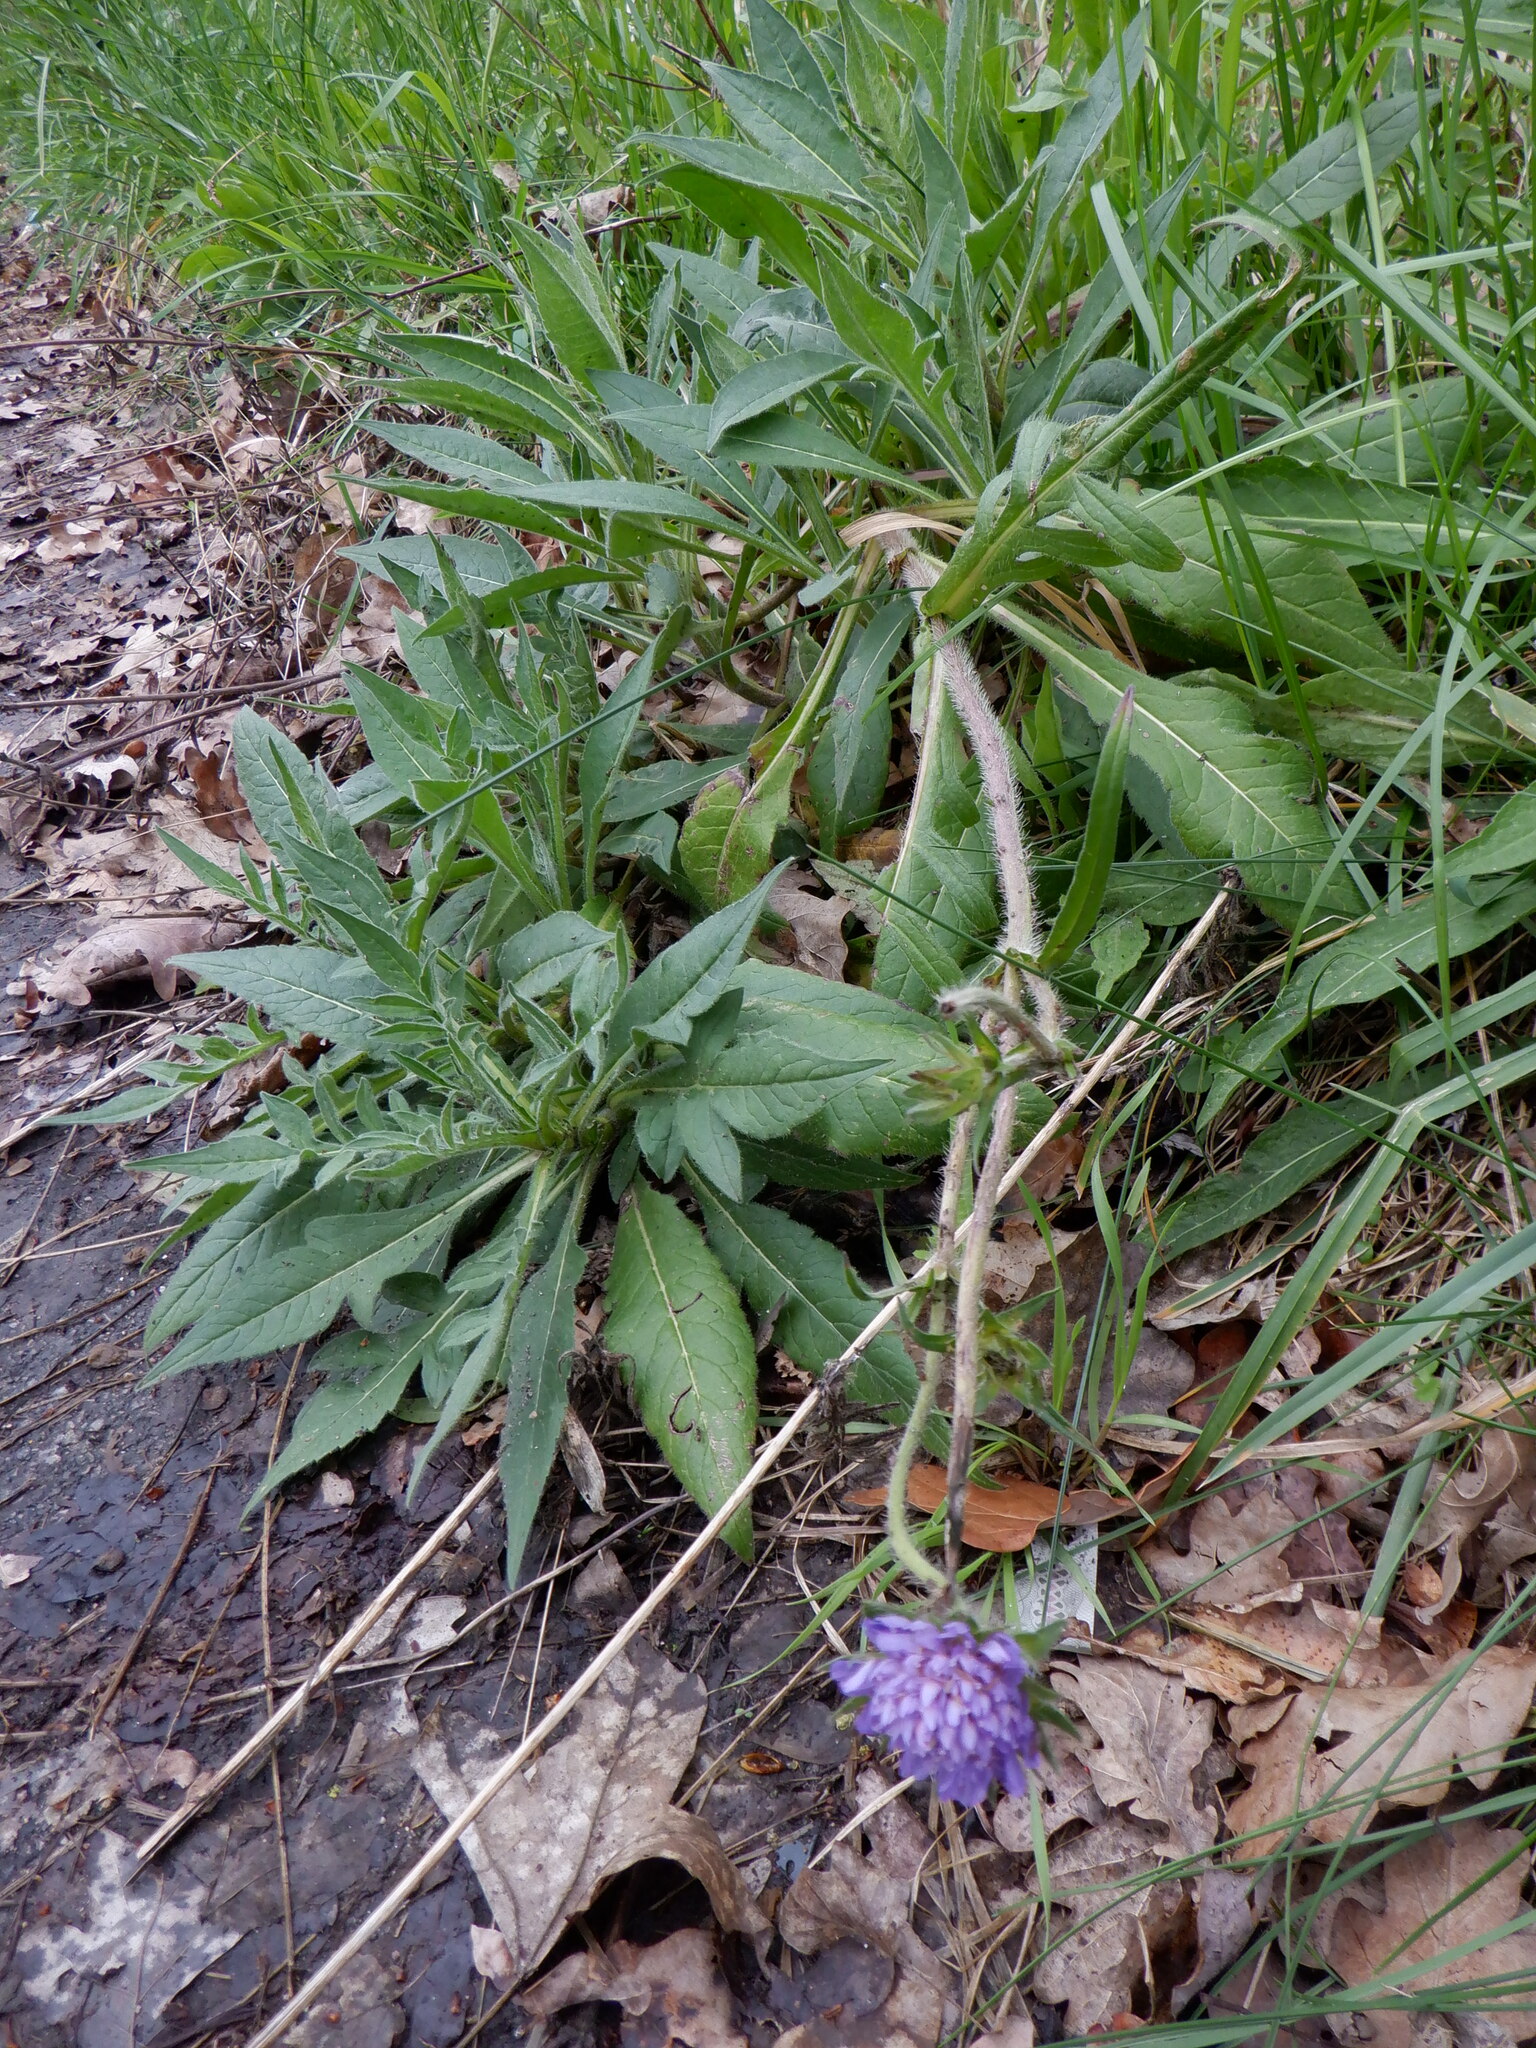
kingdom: Plantae
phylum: Tracheophyta
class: Magnoliopsida
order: Dipsacales
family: Caprifoliaceae
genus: Knautia
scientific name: Knautia arvensis
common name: Field scabiosa
